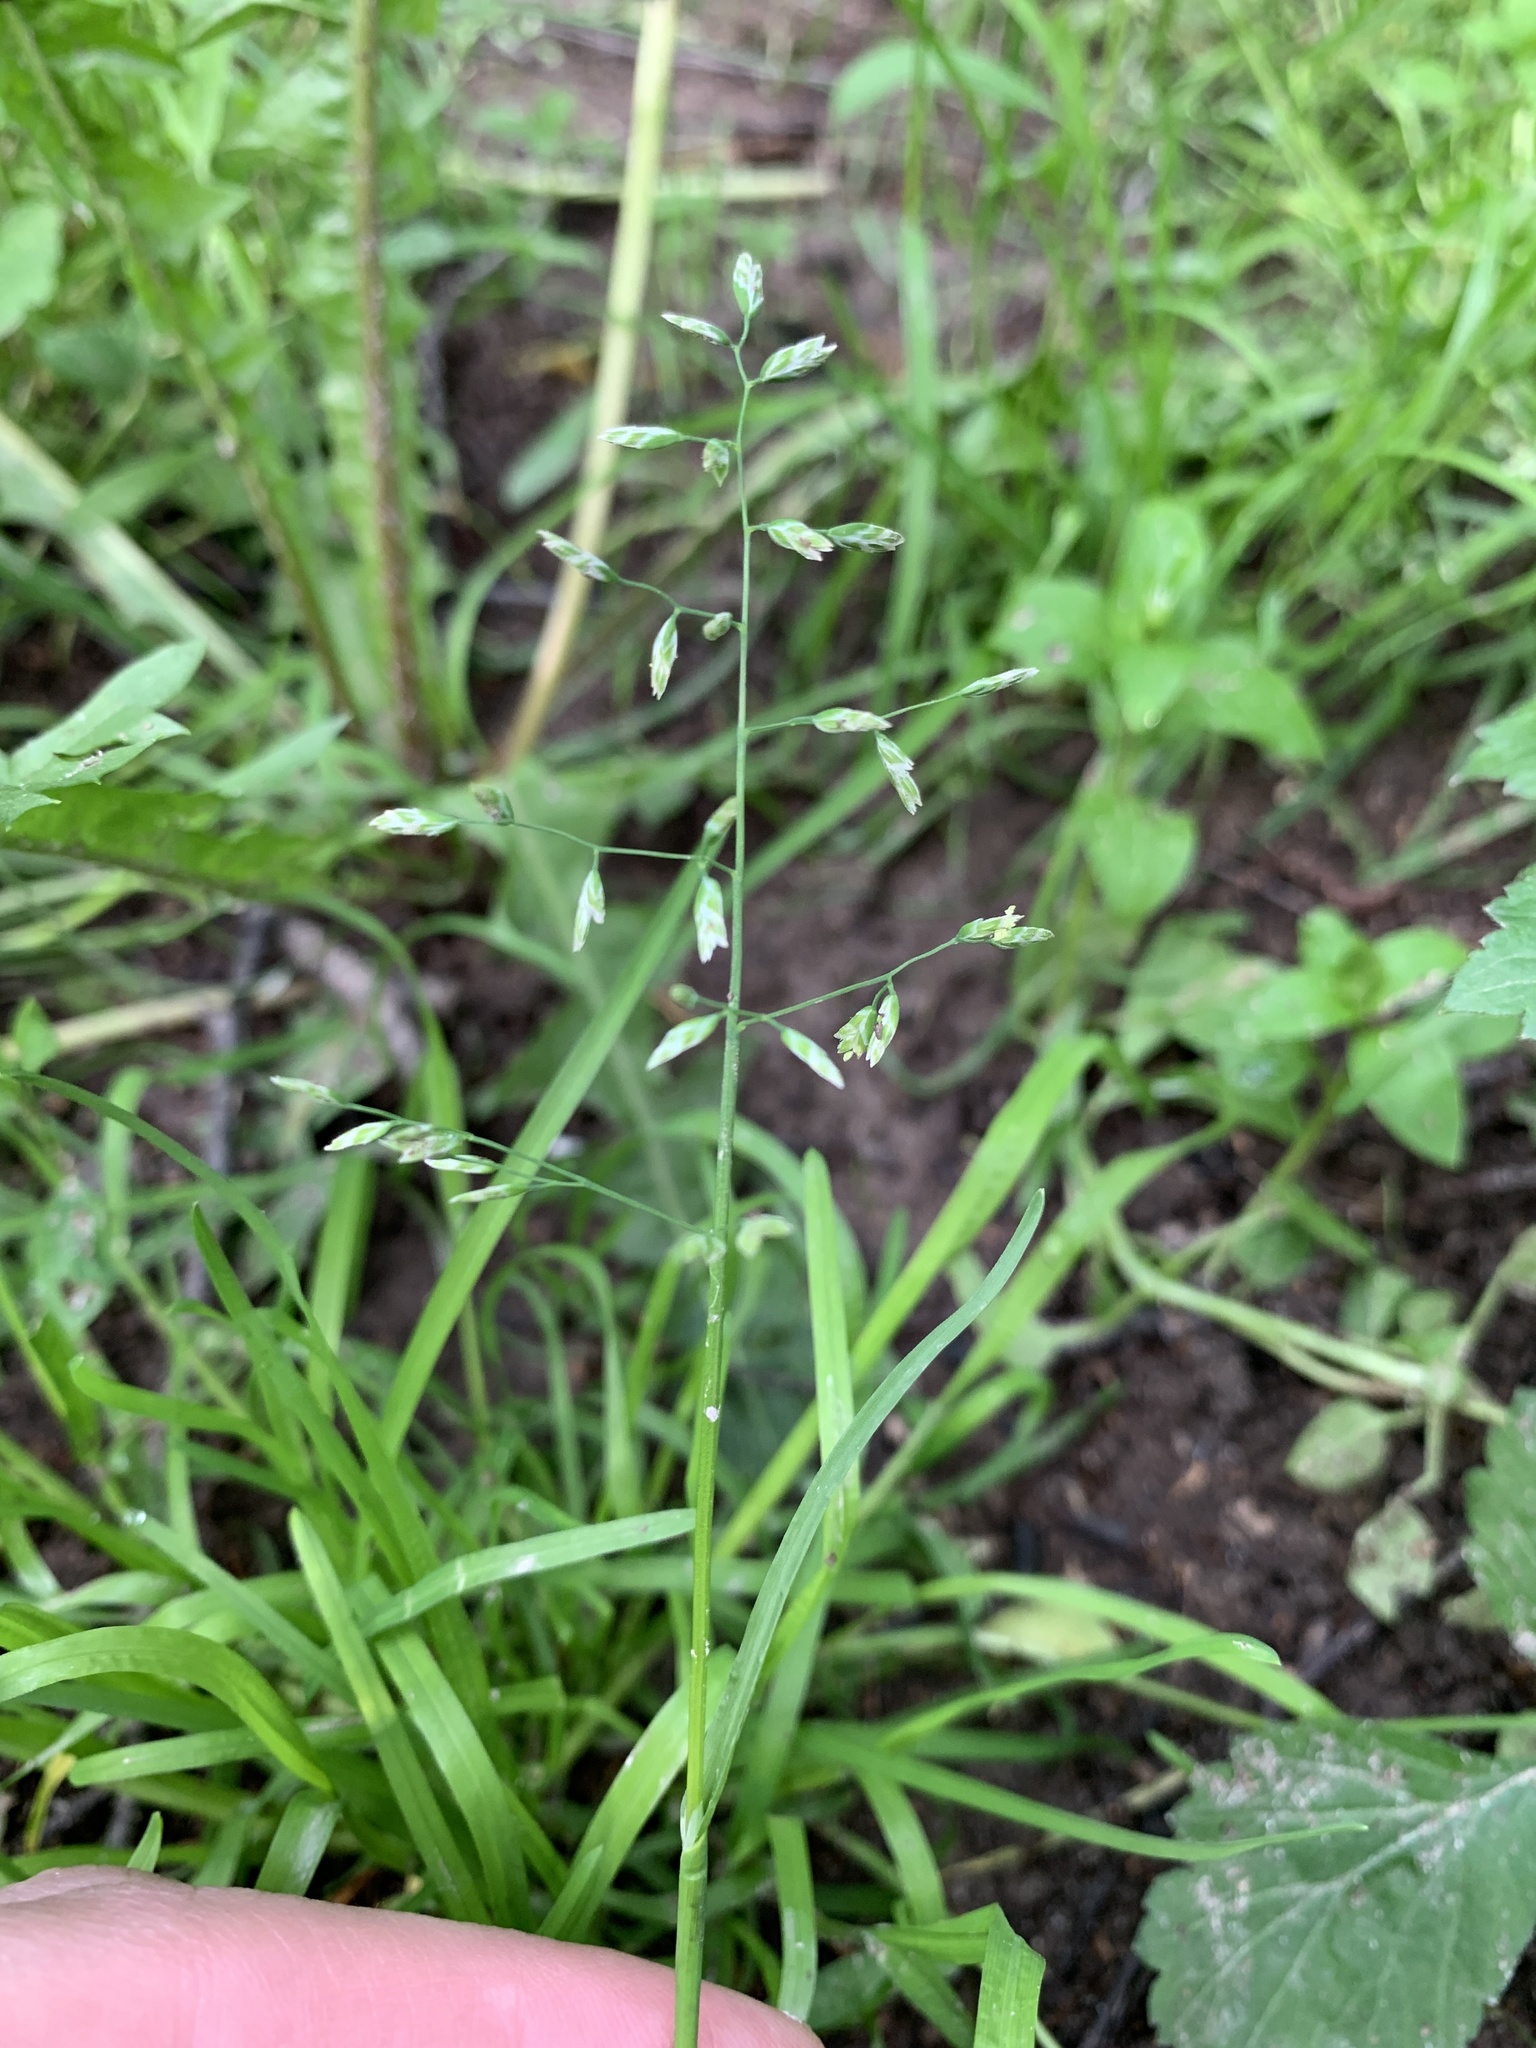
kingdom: Plantae
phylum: Tracheophyta
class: Liliopsida
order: Poales
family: Poaceae
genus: Poa
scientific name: Poa annua
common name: Annual bluegrass
